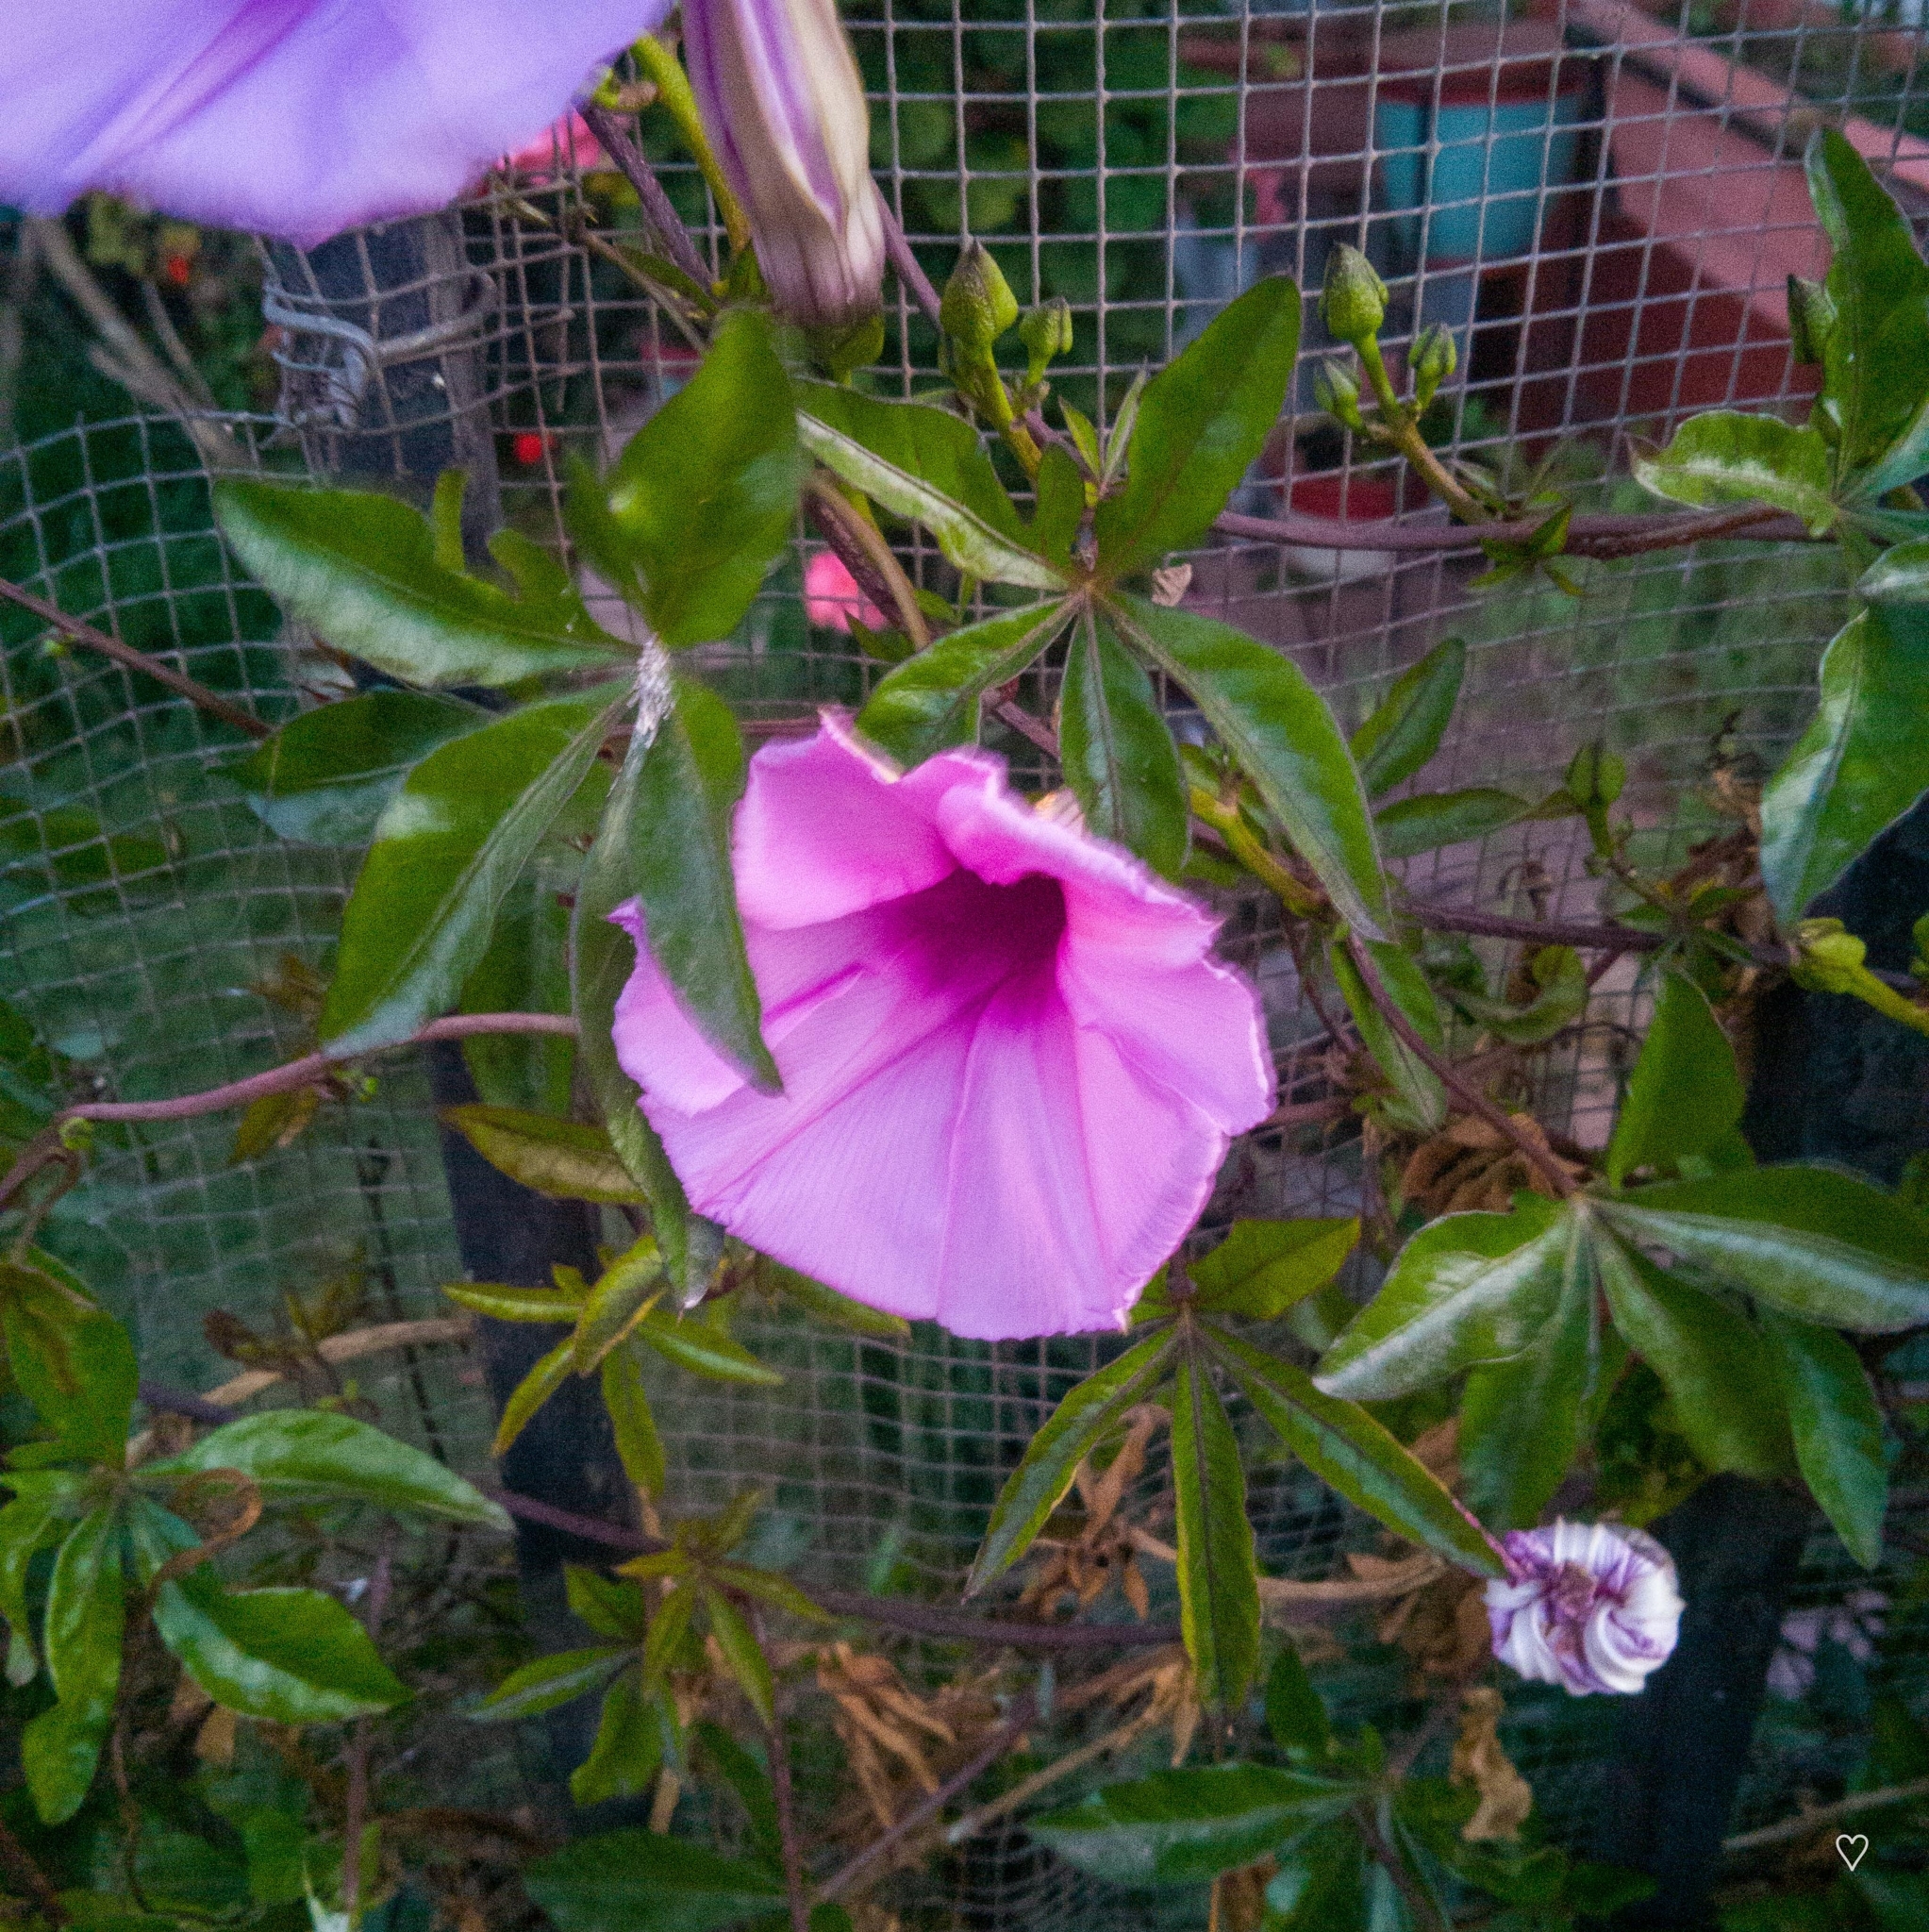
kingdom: Plantae
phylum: Tracheophyta
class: Magnoliopsida
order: Solanales
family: Convolvulaceae
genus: Ipomoea
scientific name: Ipomoea cairica
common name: Mile a minute vine
